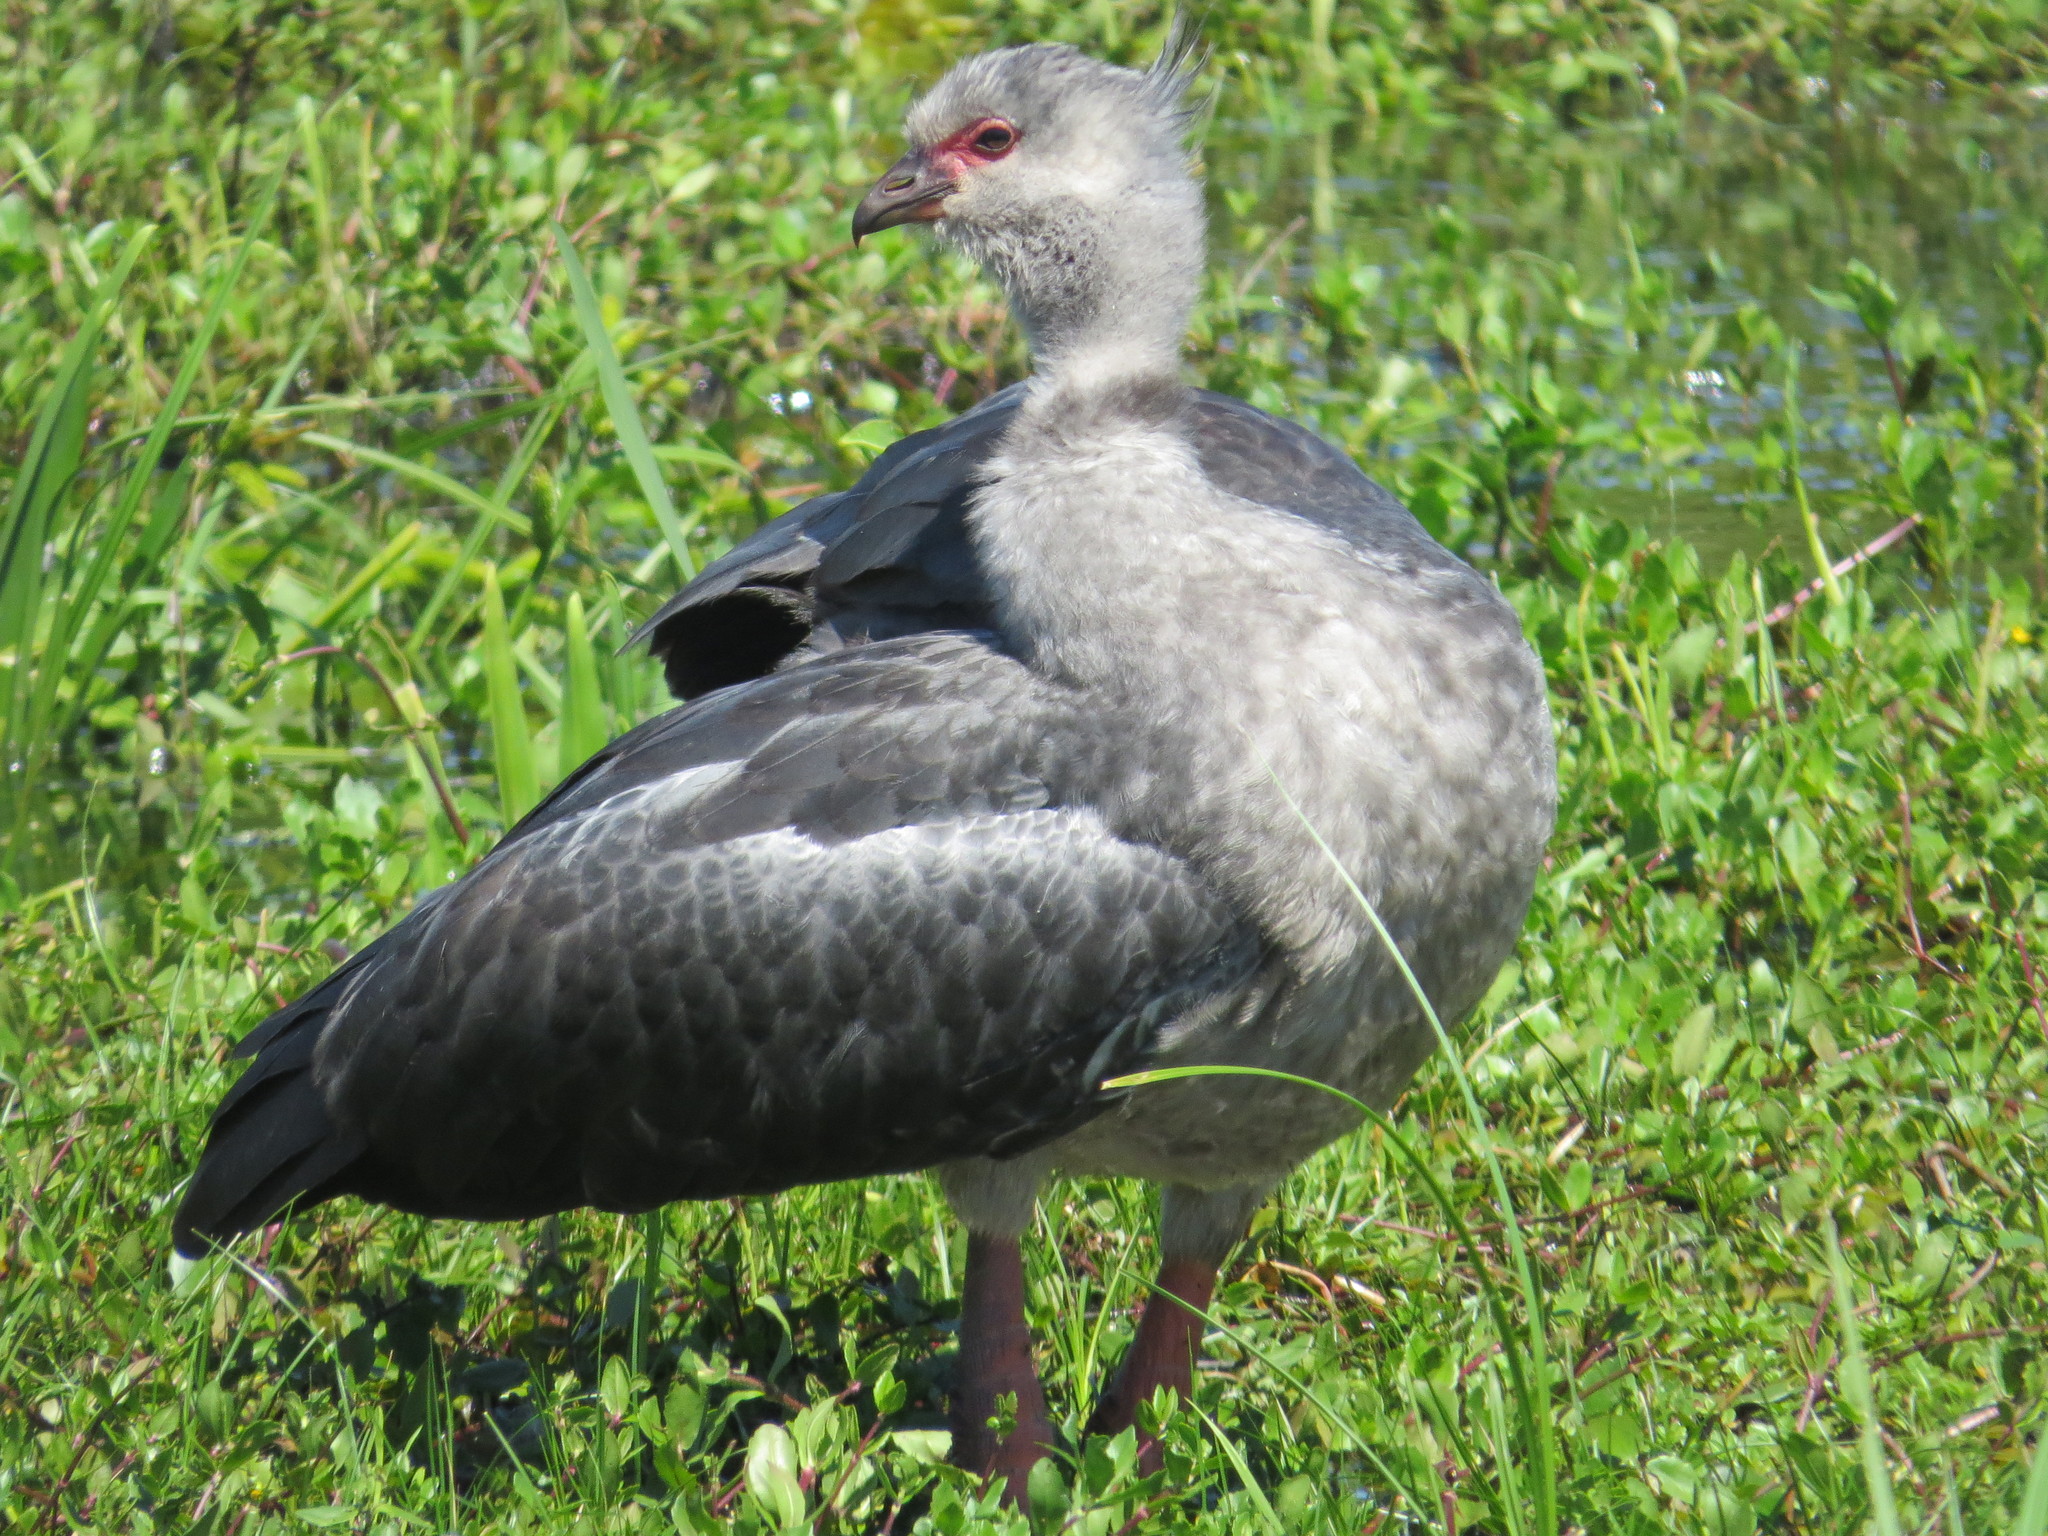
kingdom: Animalia
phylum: Chordata
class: Aves
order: Anseriformes
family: Anhimidae
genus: Chauna
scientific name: Chauna torquata
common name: Southern screamer
